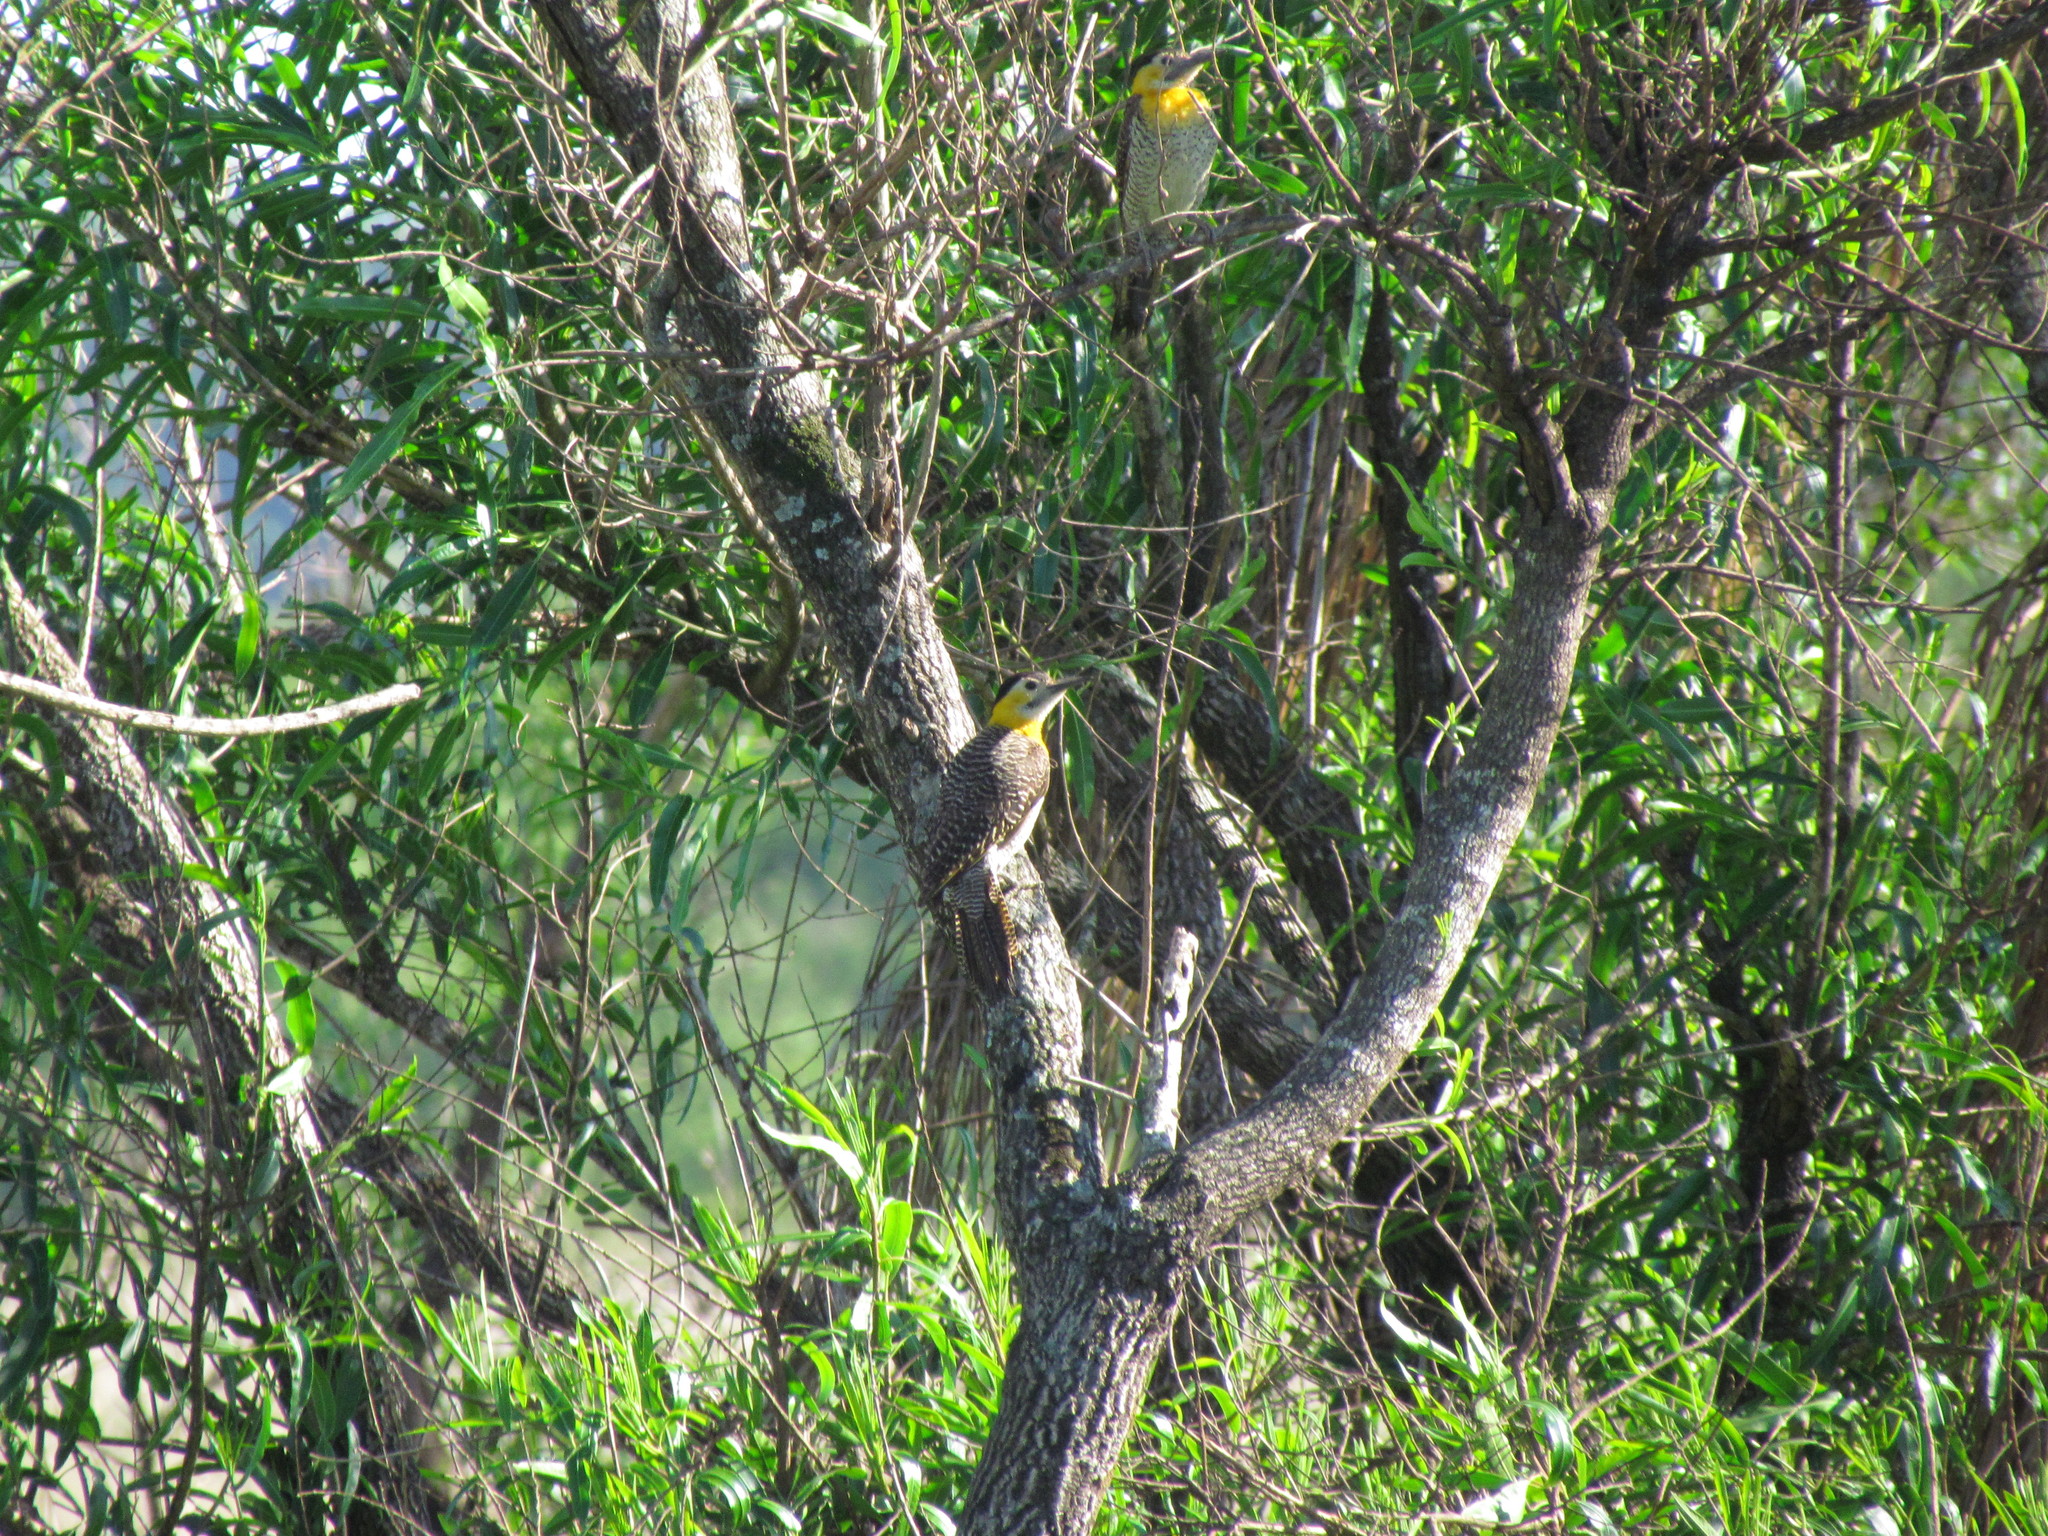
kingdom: Animalia
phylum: Chordata
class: Aves
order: Piciformes
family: Picidae
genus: Colaptes
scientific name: Colaptes campestris
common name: Campo flicker
